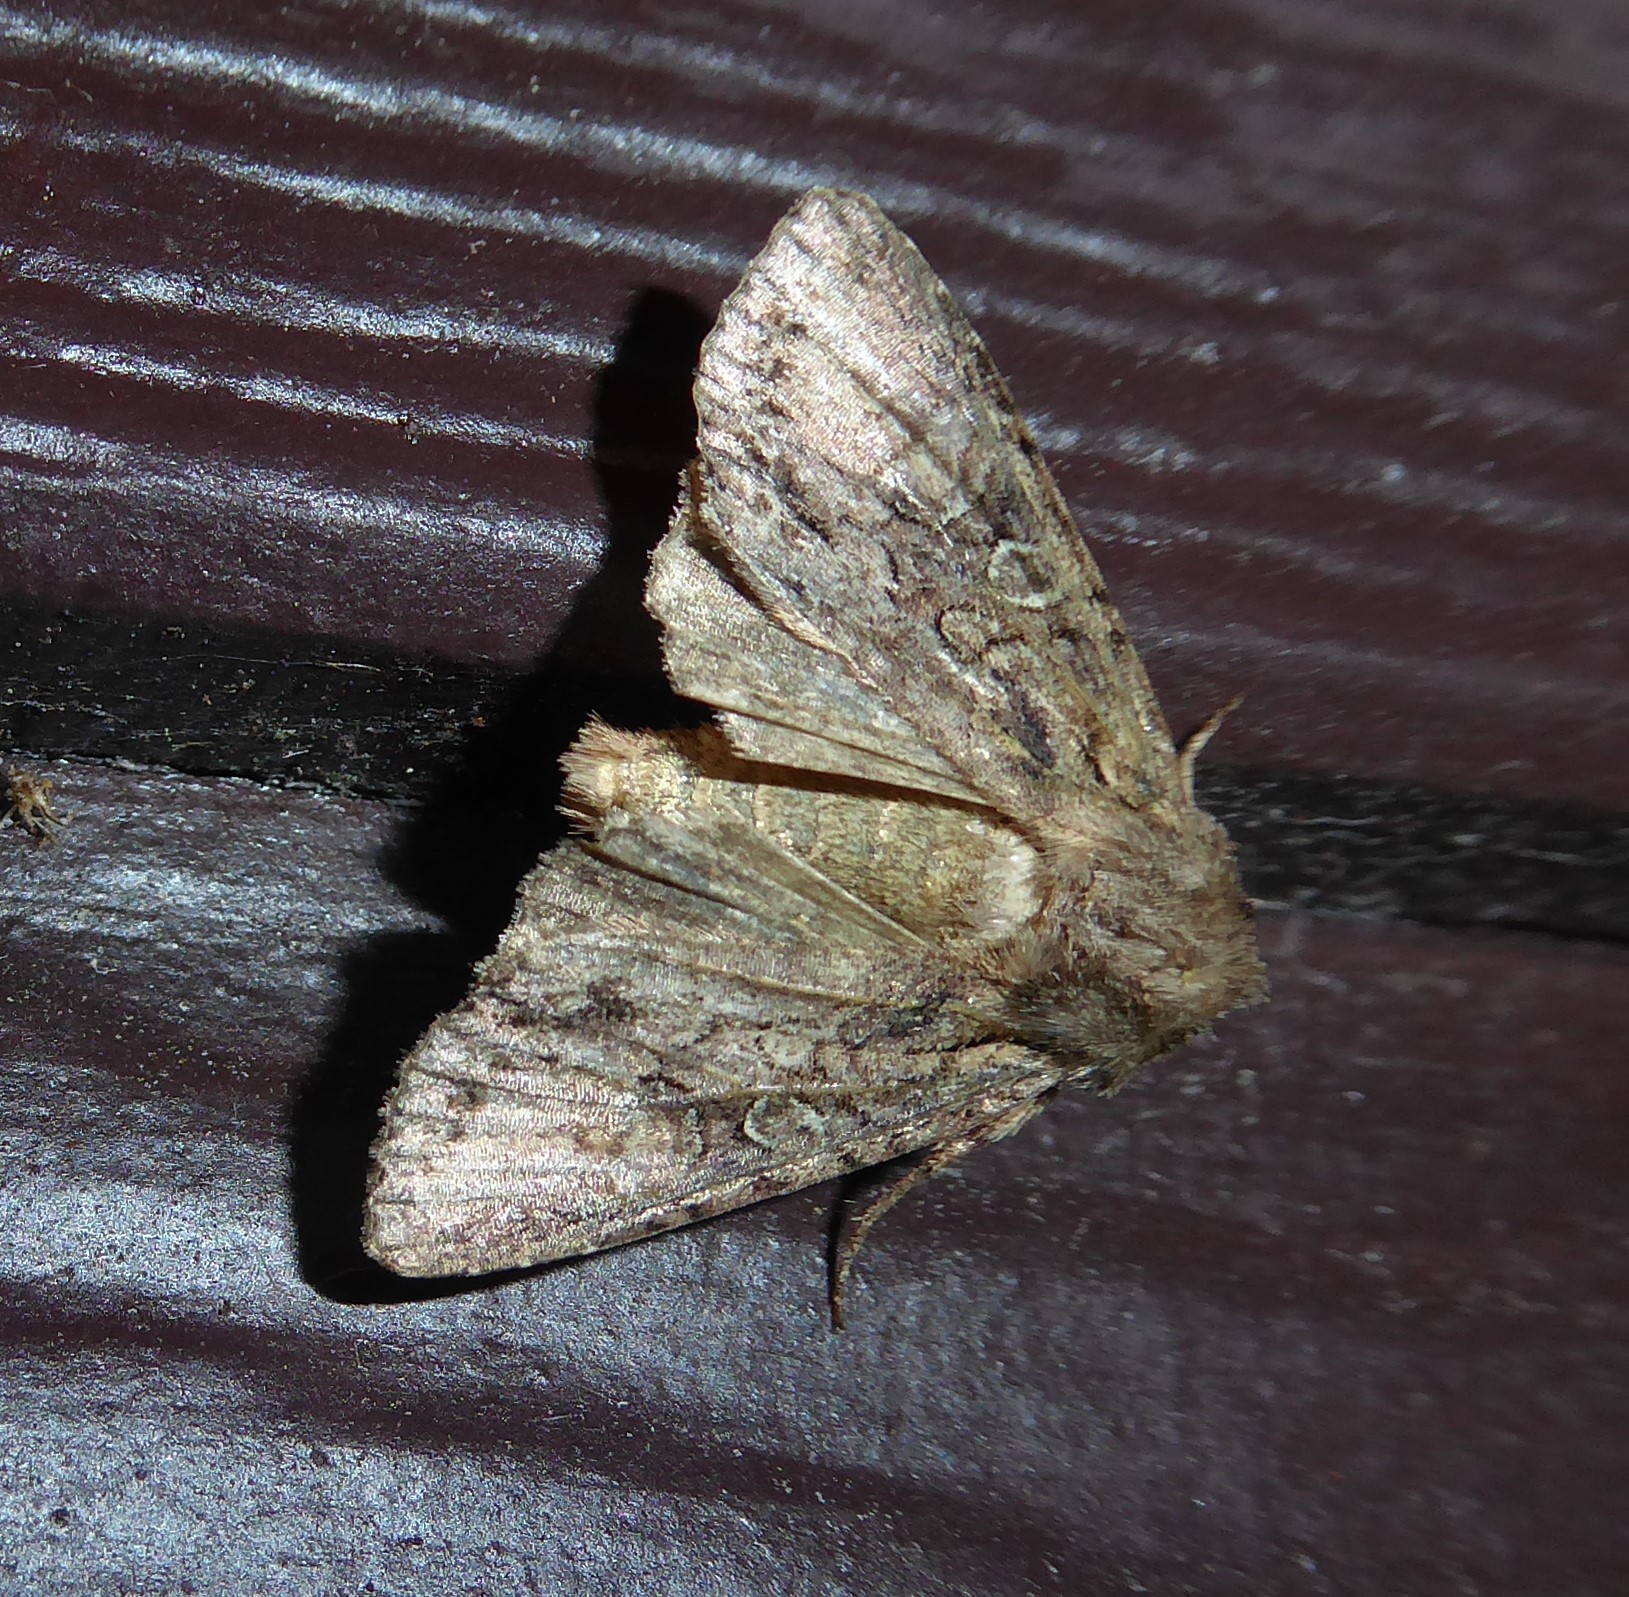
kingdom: Animalia
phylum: Arthropoda
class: Insecta
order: Lepidoptera
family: Noctuidae
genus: Ichneutica
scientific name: Ichneutica mutans
